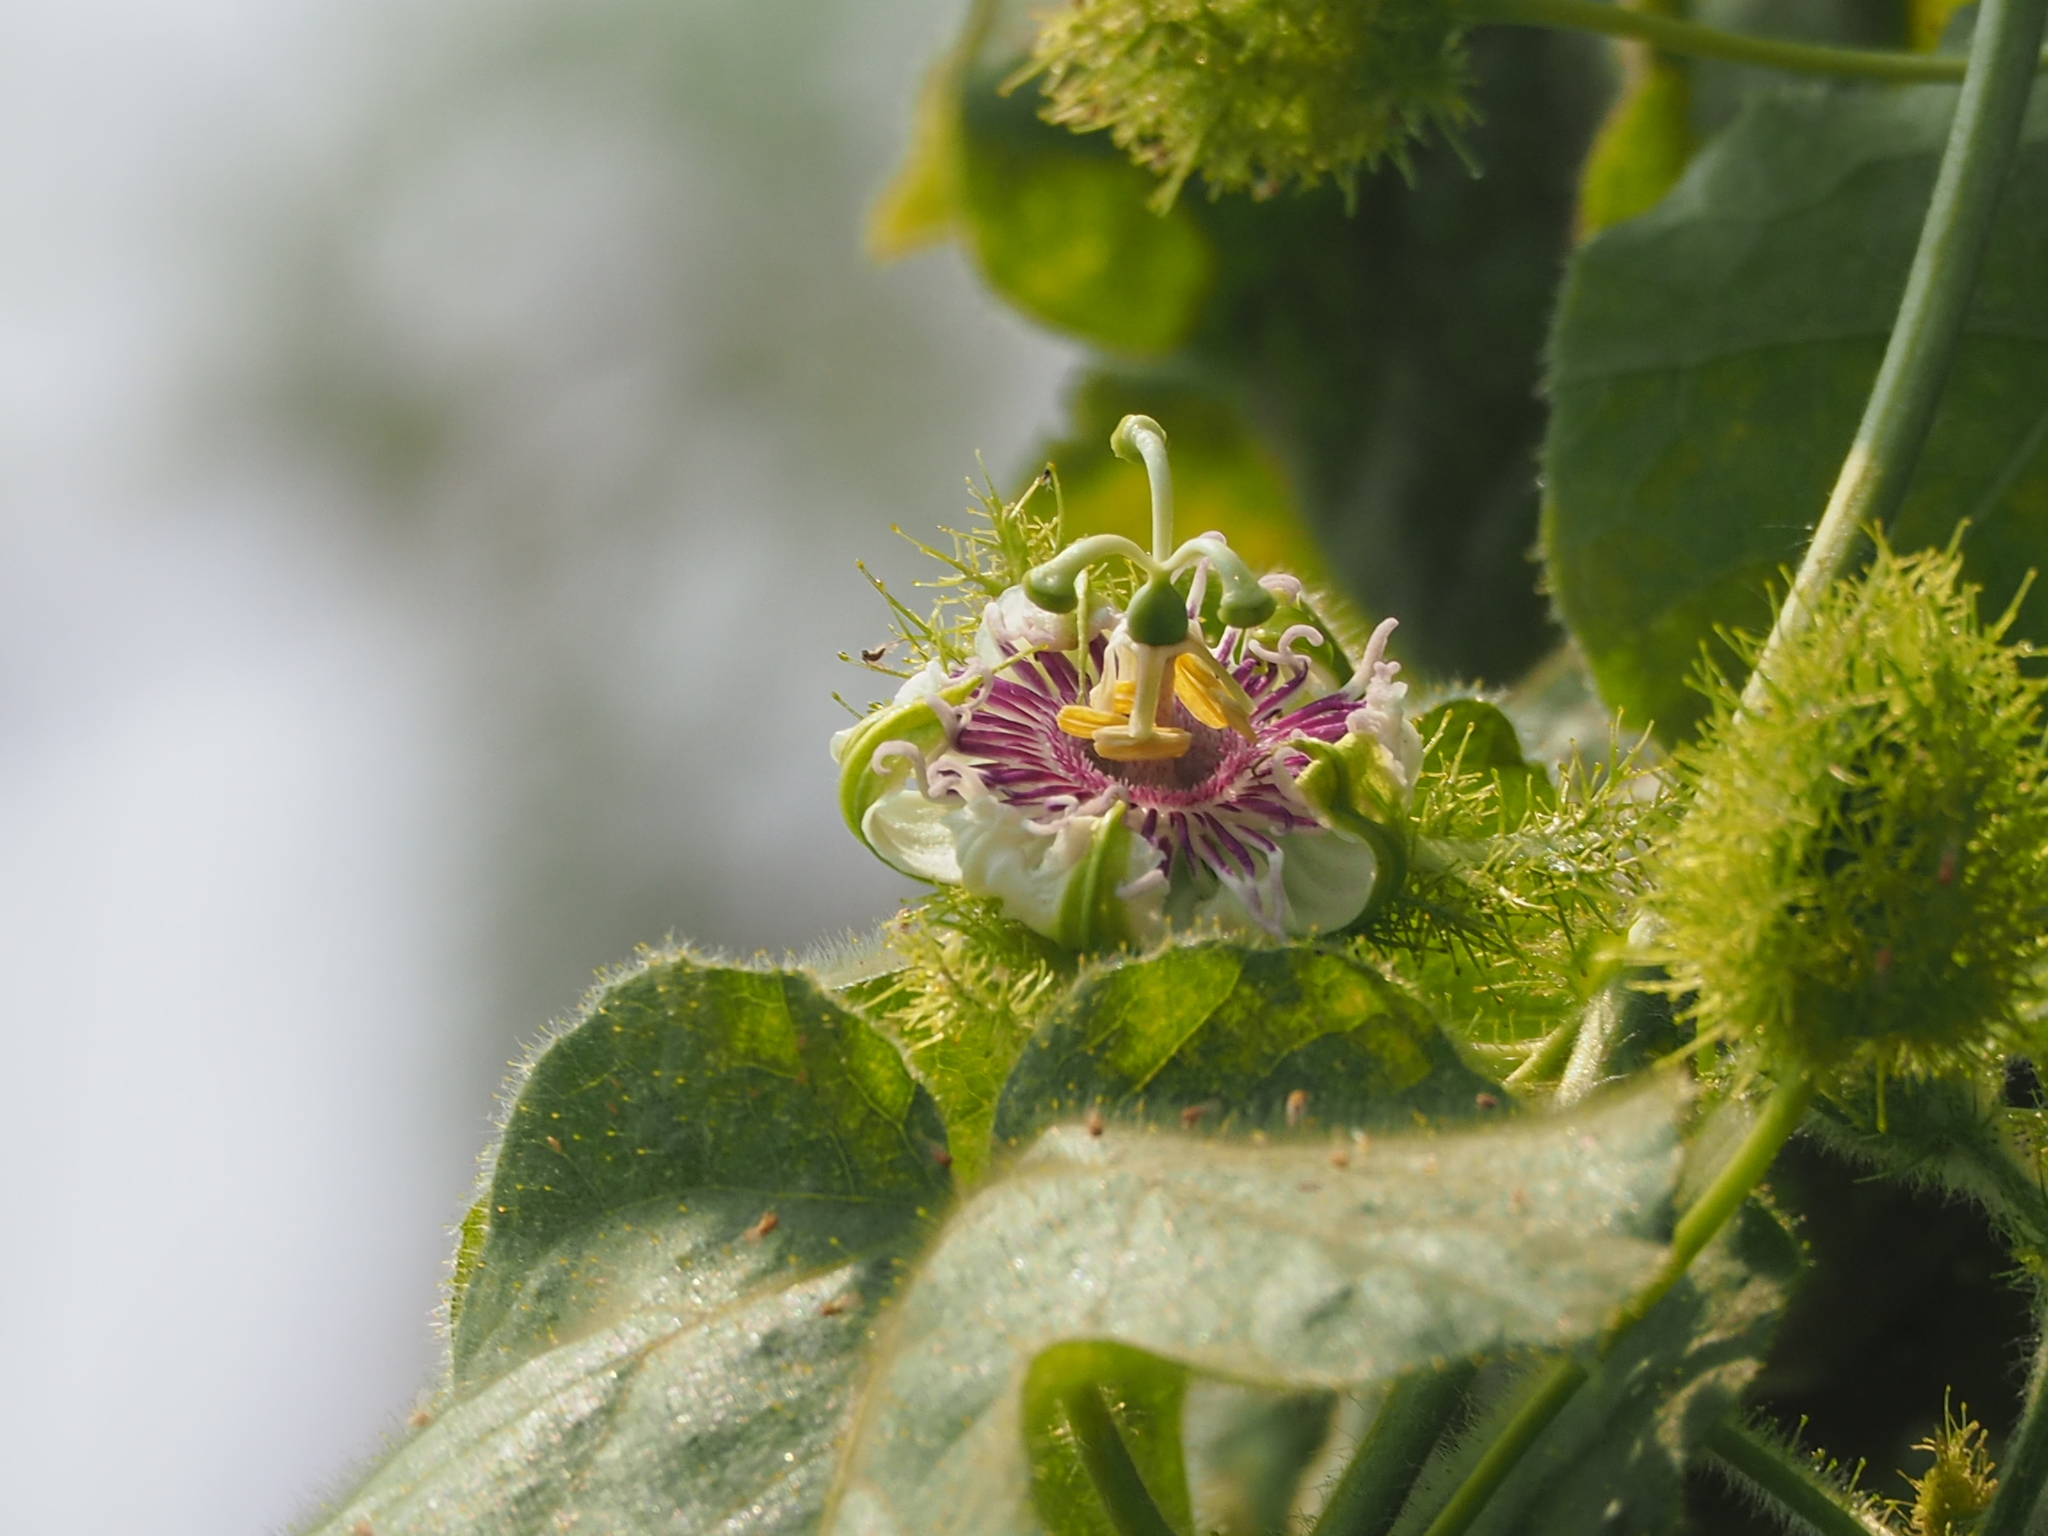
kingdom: Plantae
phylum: Tracheophyta
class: Magnoliopsida
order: Malpighiales
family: Passifloraceae
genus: Passiflora
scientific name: Passiflora vesicaria
